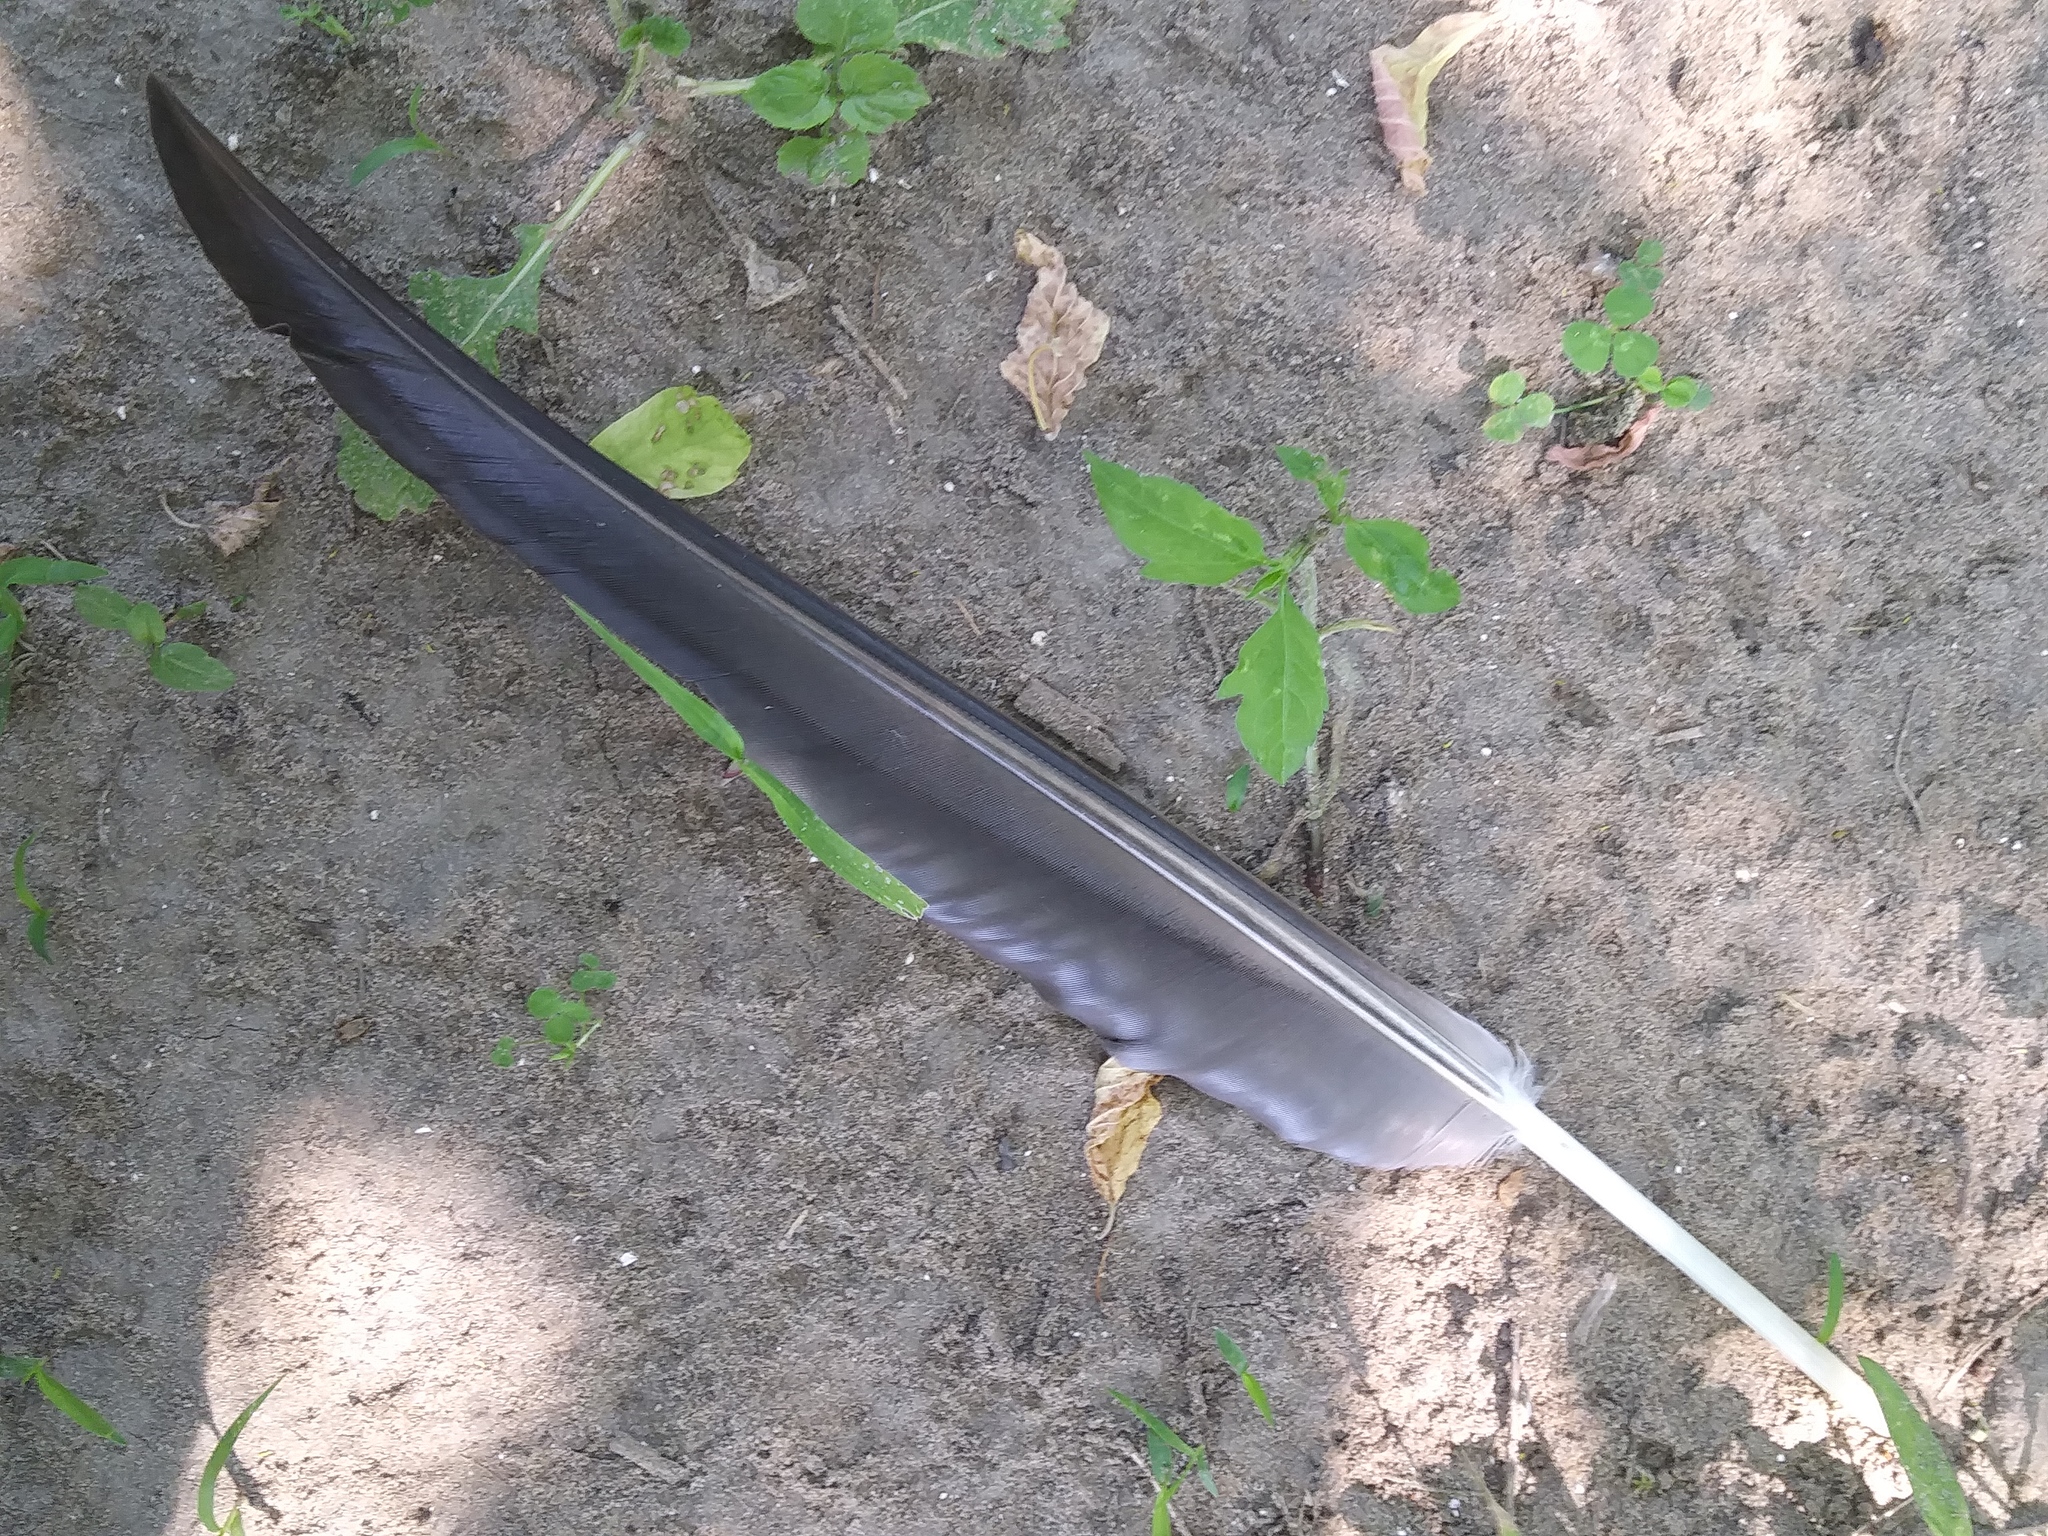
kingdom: Animalia
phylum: Chordata
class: Aves
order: Anseriformes
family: Anatidae
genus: Branta
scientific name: Branta canadensis
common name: Canada goose
